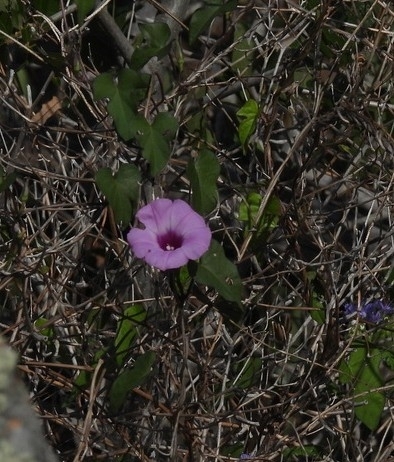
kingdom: Plantae
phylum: Tracheophyta
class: Magnoliopsida
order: Solanales
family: Convolvulaceae
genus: Ipomoea
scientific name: Ipomoea cordatotriloba
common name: Cotton morning glory
